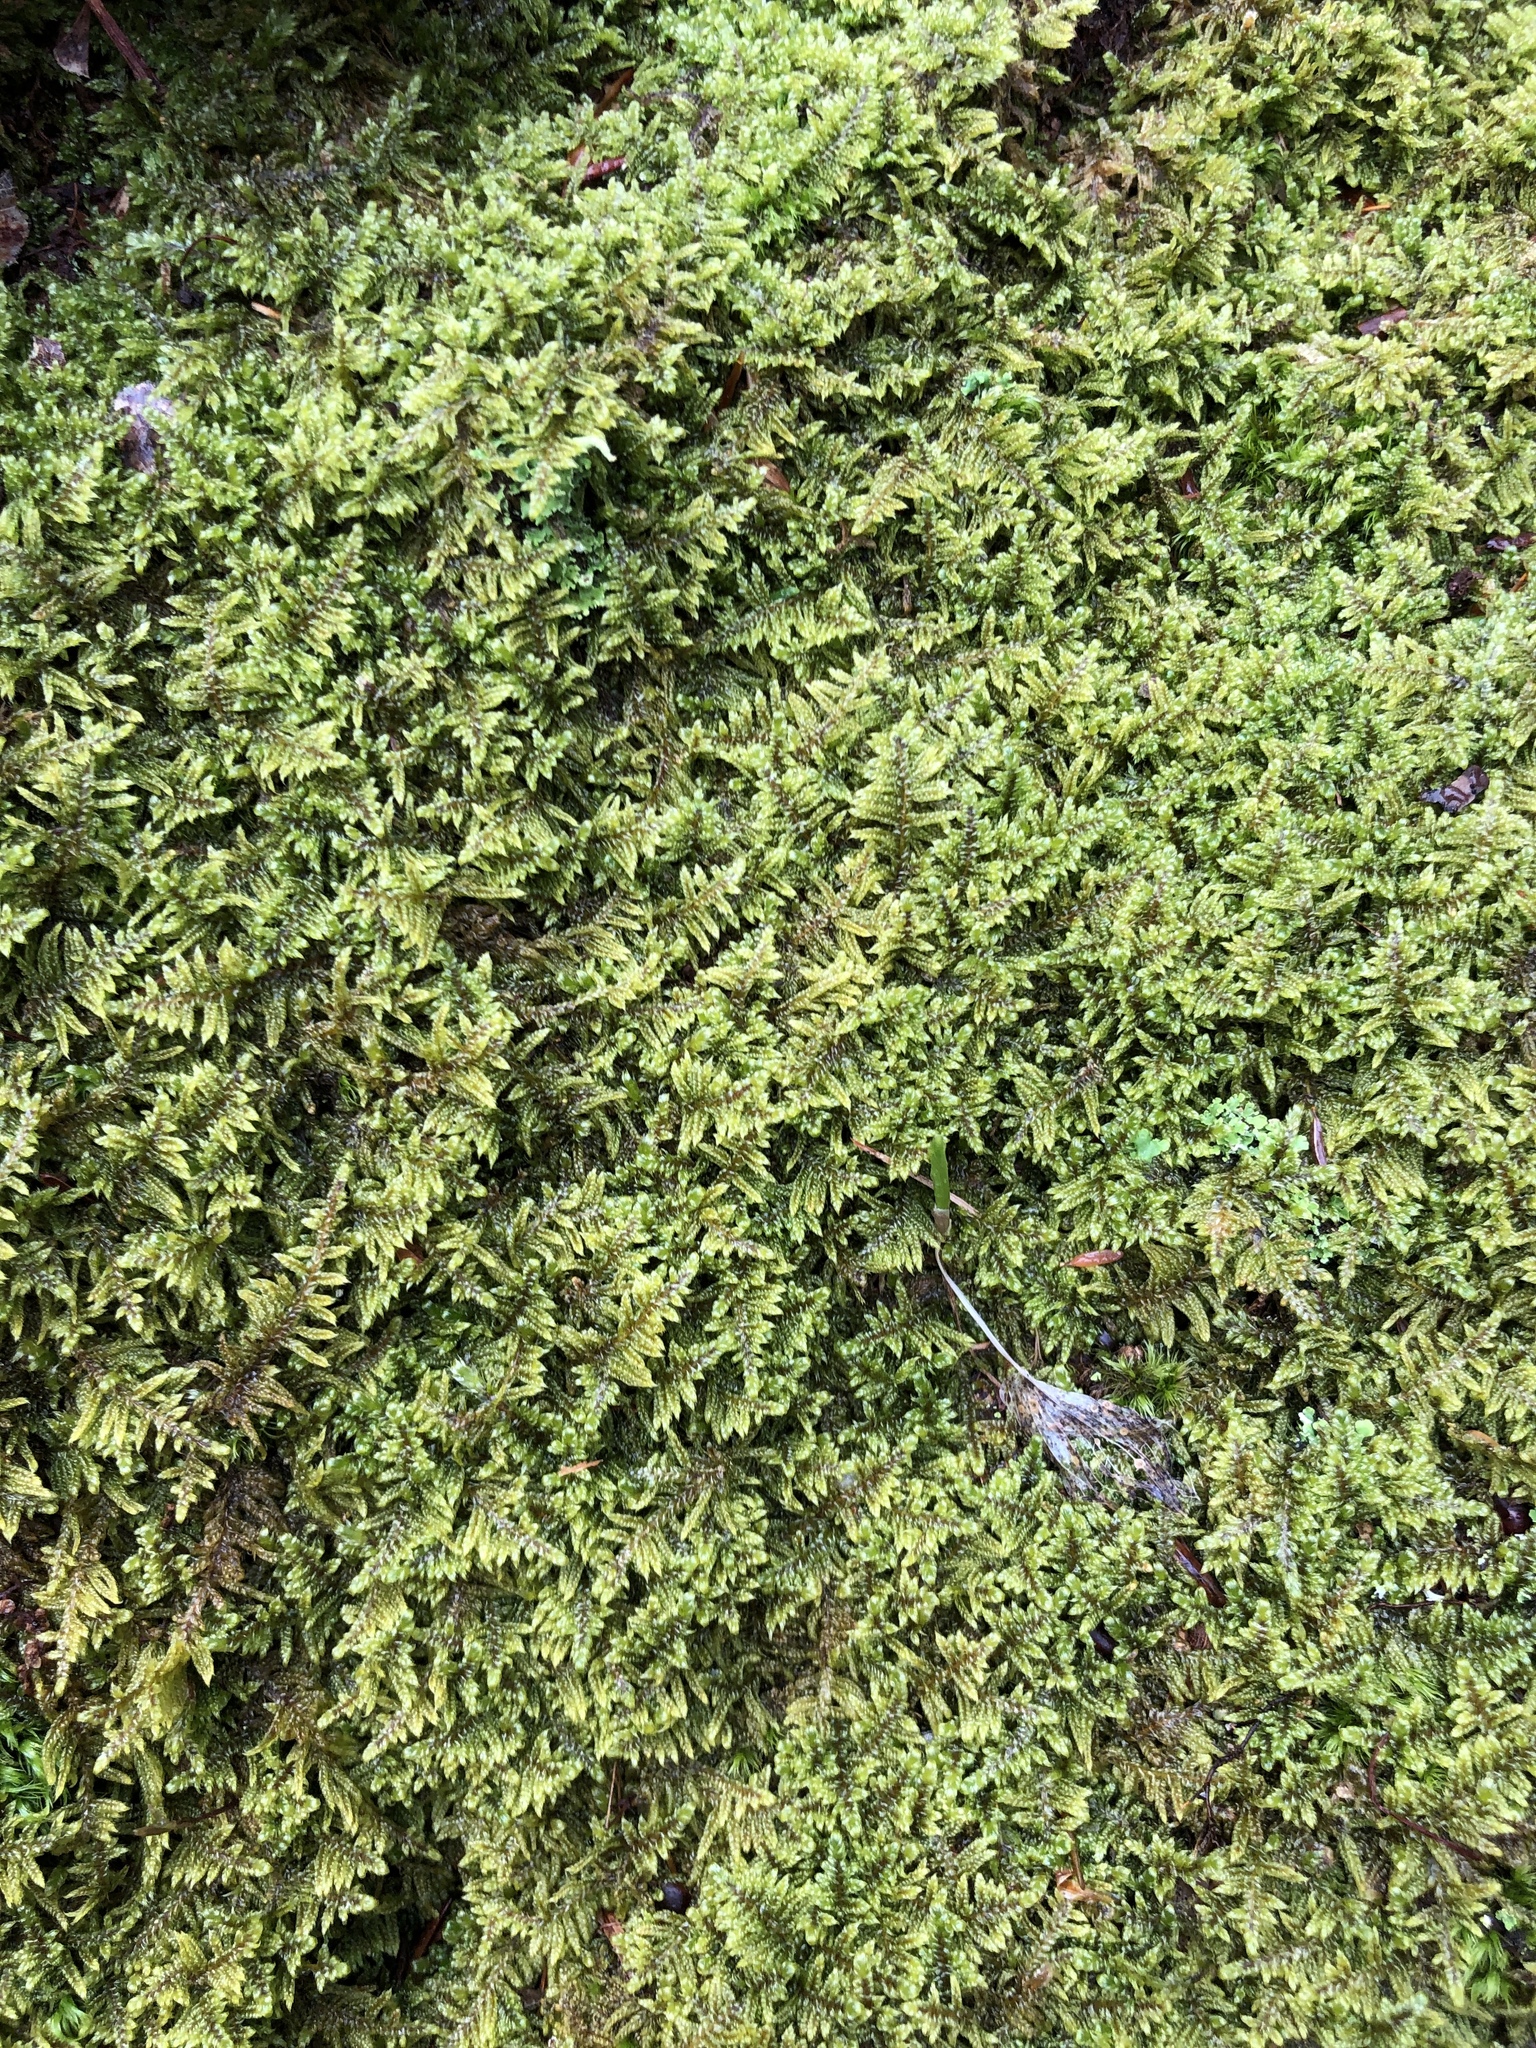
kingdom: Plantae
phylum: Bryophyta
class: Bryopsida
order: Hypnales
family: Callicladiaceae
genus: Callicladium
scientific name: Callicladium imponens
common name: Brocade moss
